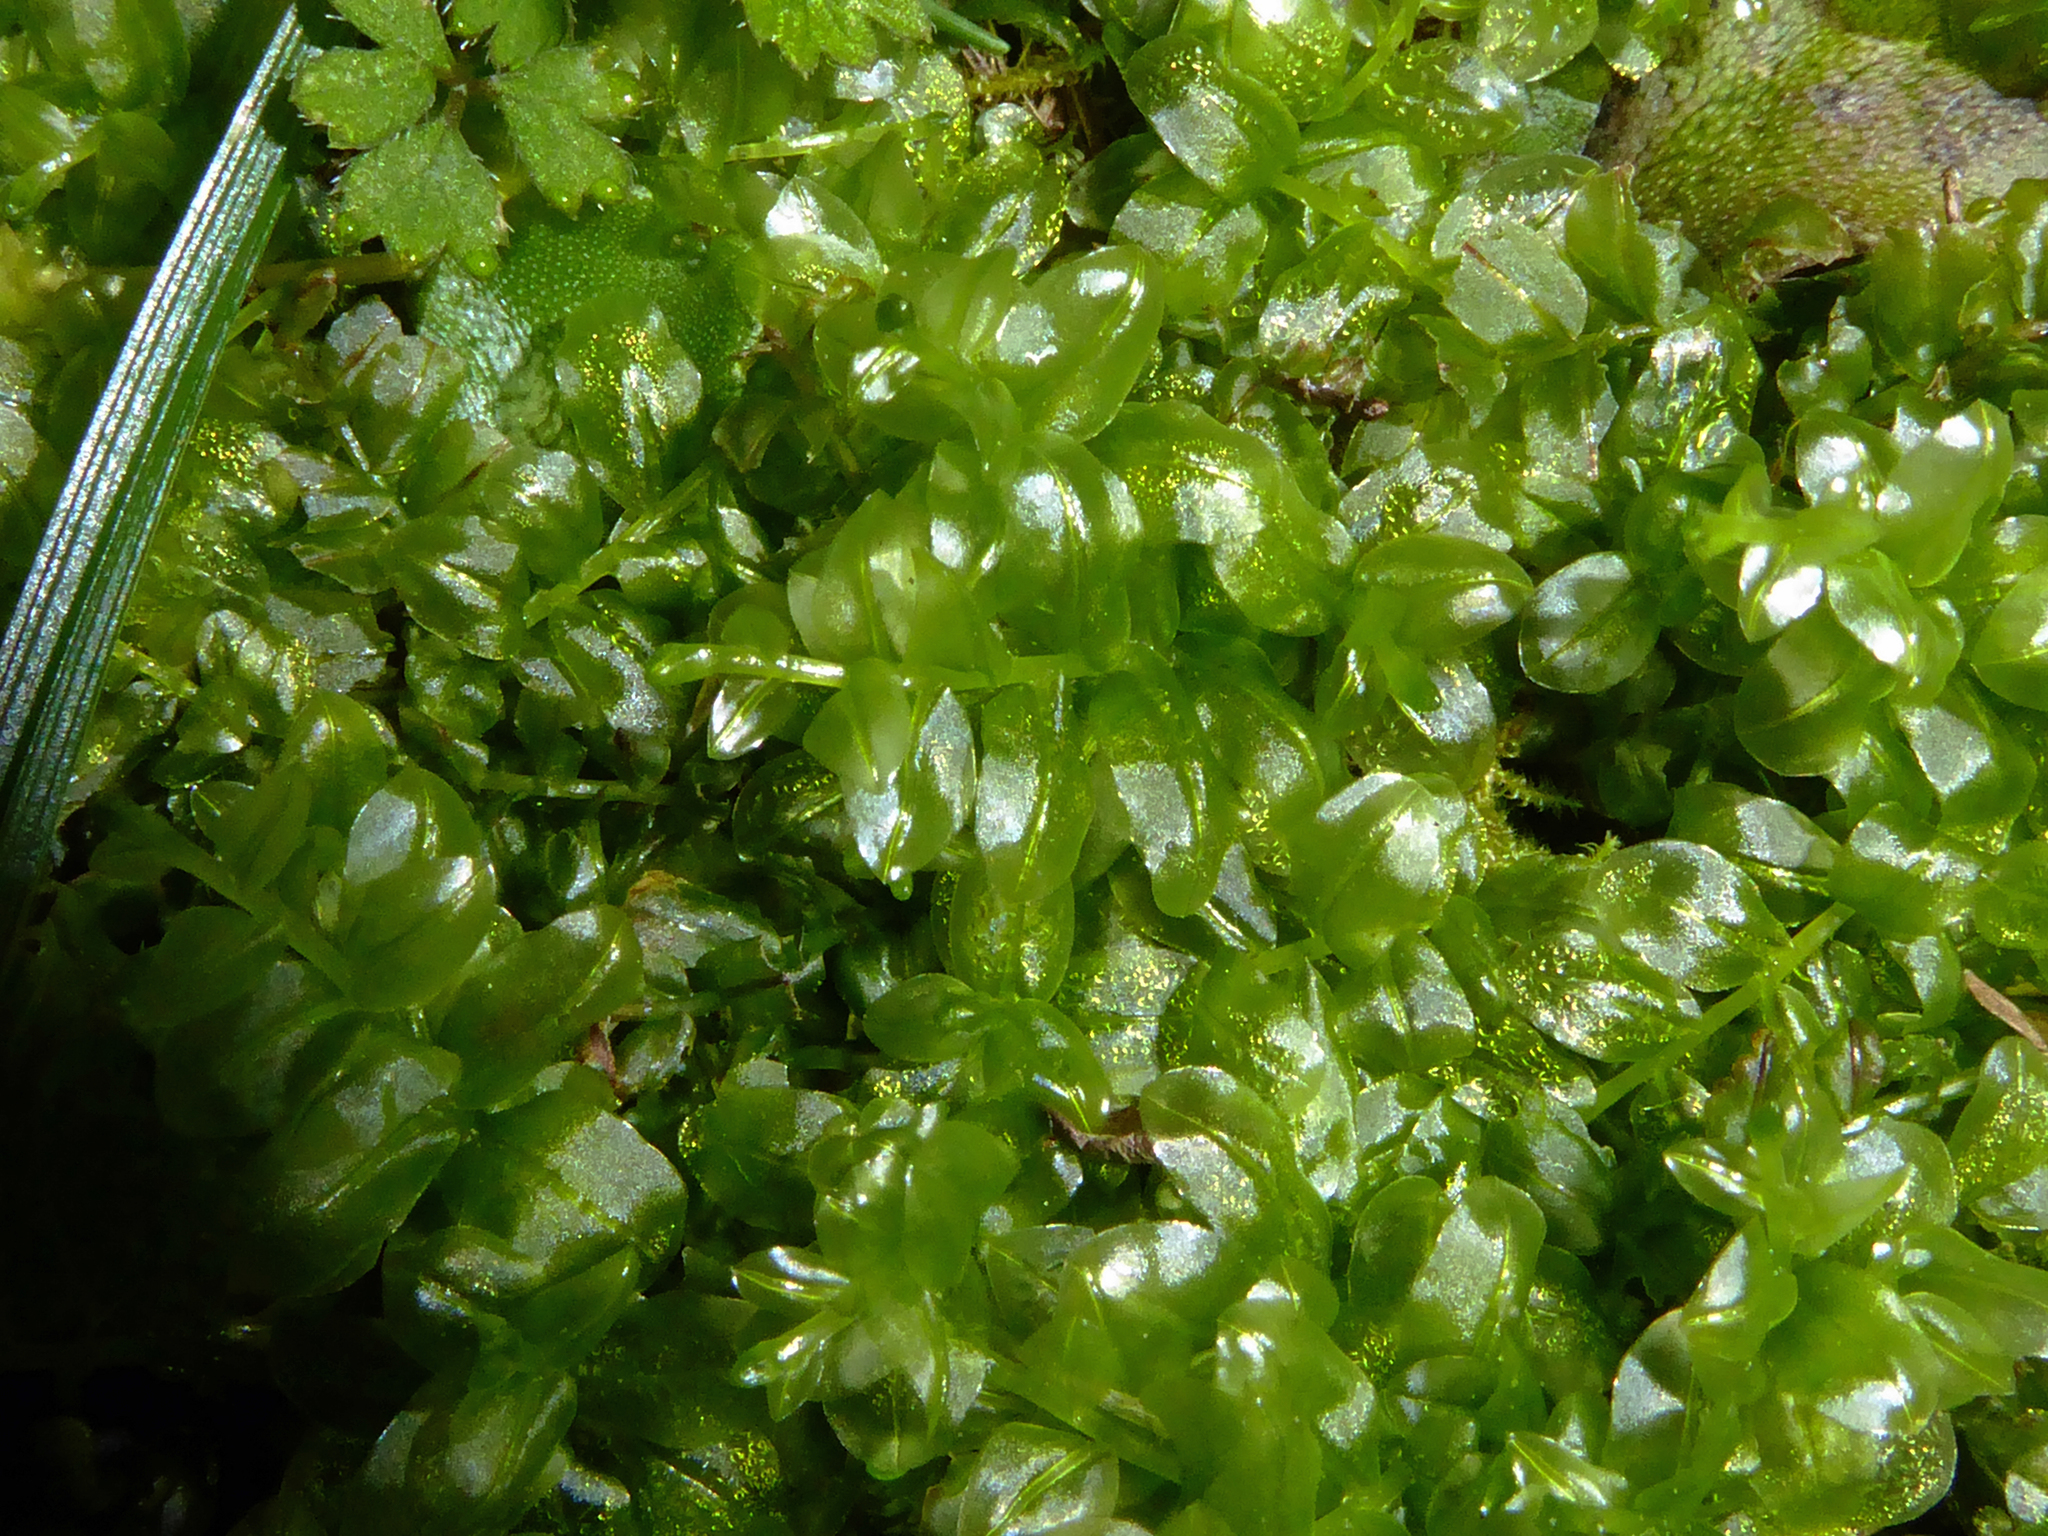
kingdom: Plantae
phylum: Bryophyta
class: Bryopsida
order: Bryales
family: Mniaceae
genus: Plagiomnium
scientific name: Plagiomnium novae-zealandiae
